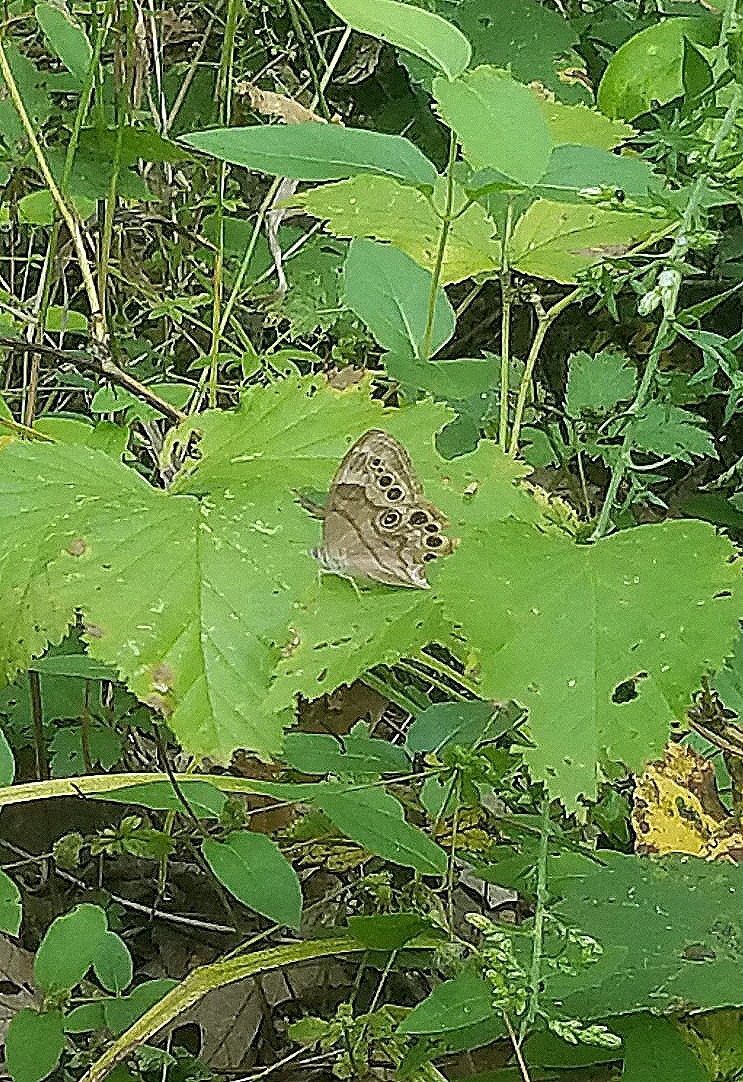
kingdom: Animalia
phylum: Arthropoda
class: Insecta
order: Lepidoptera
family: Nymphalidae
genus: Lethe
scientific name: Lethe anthedon
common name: Northern pearly-eye
